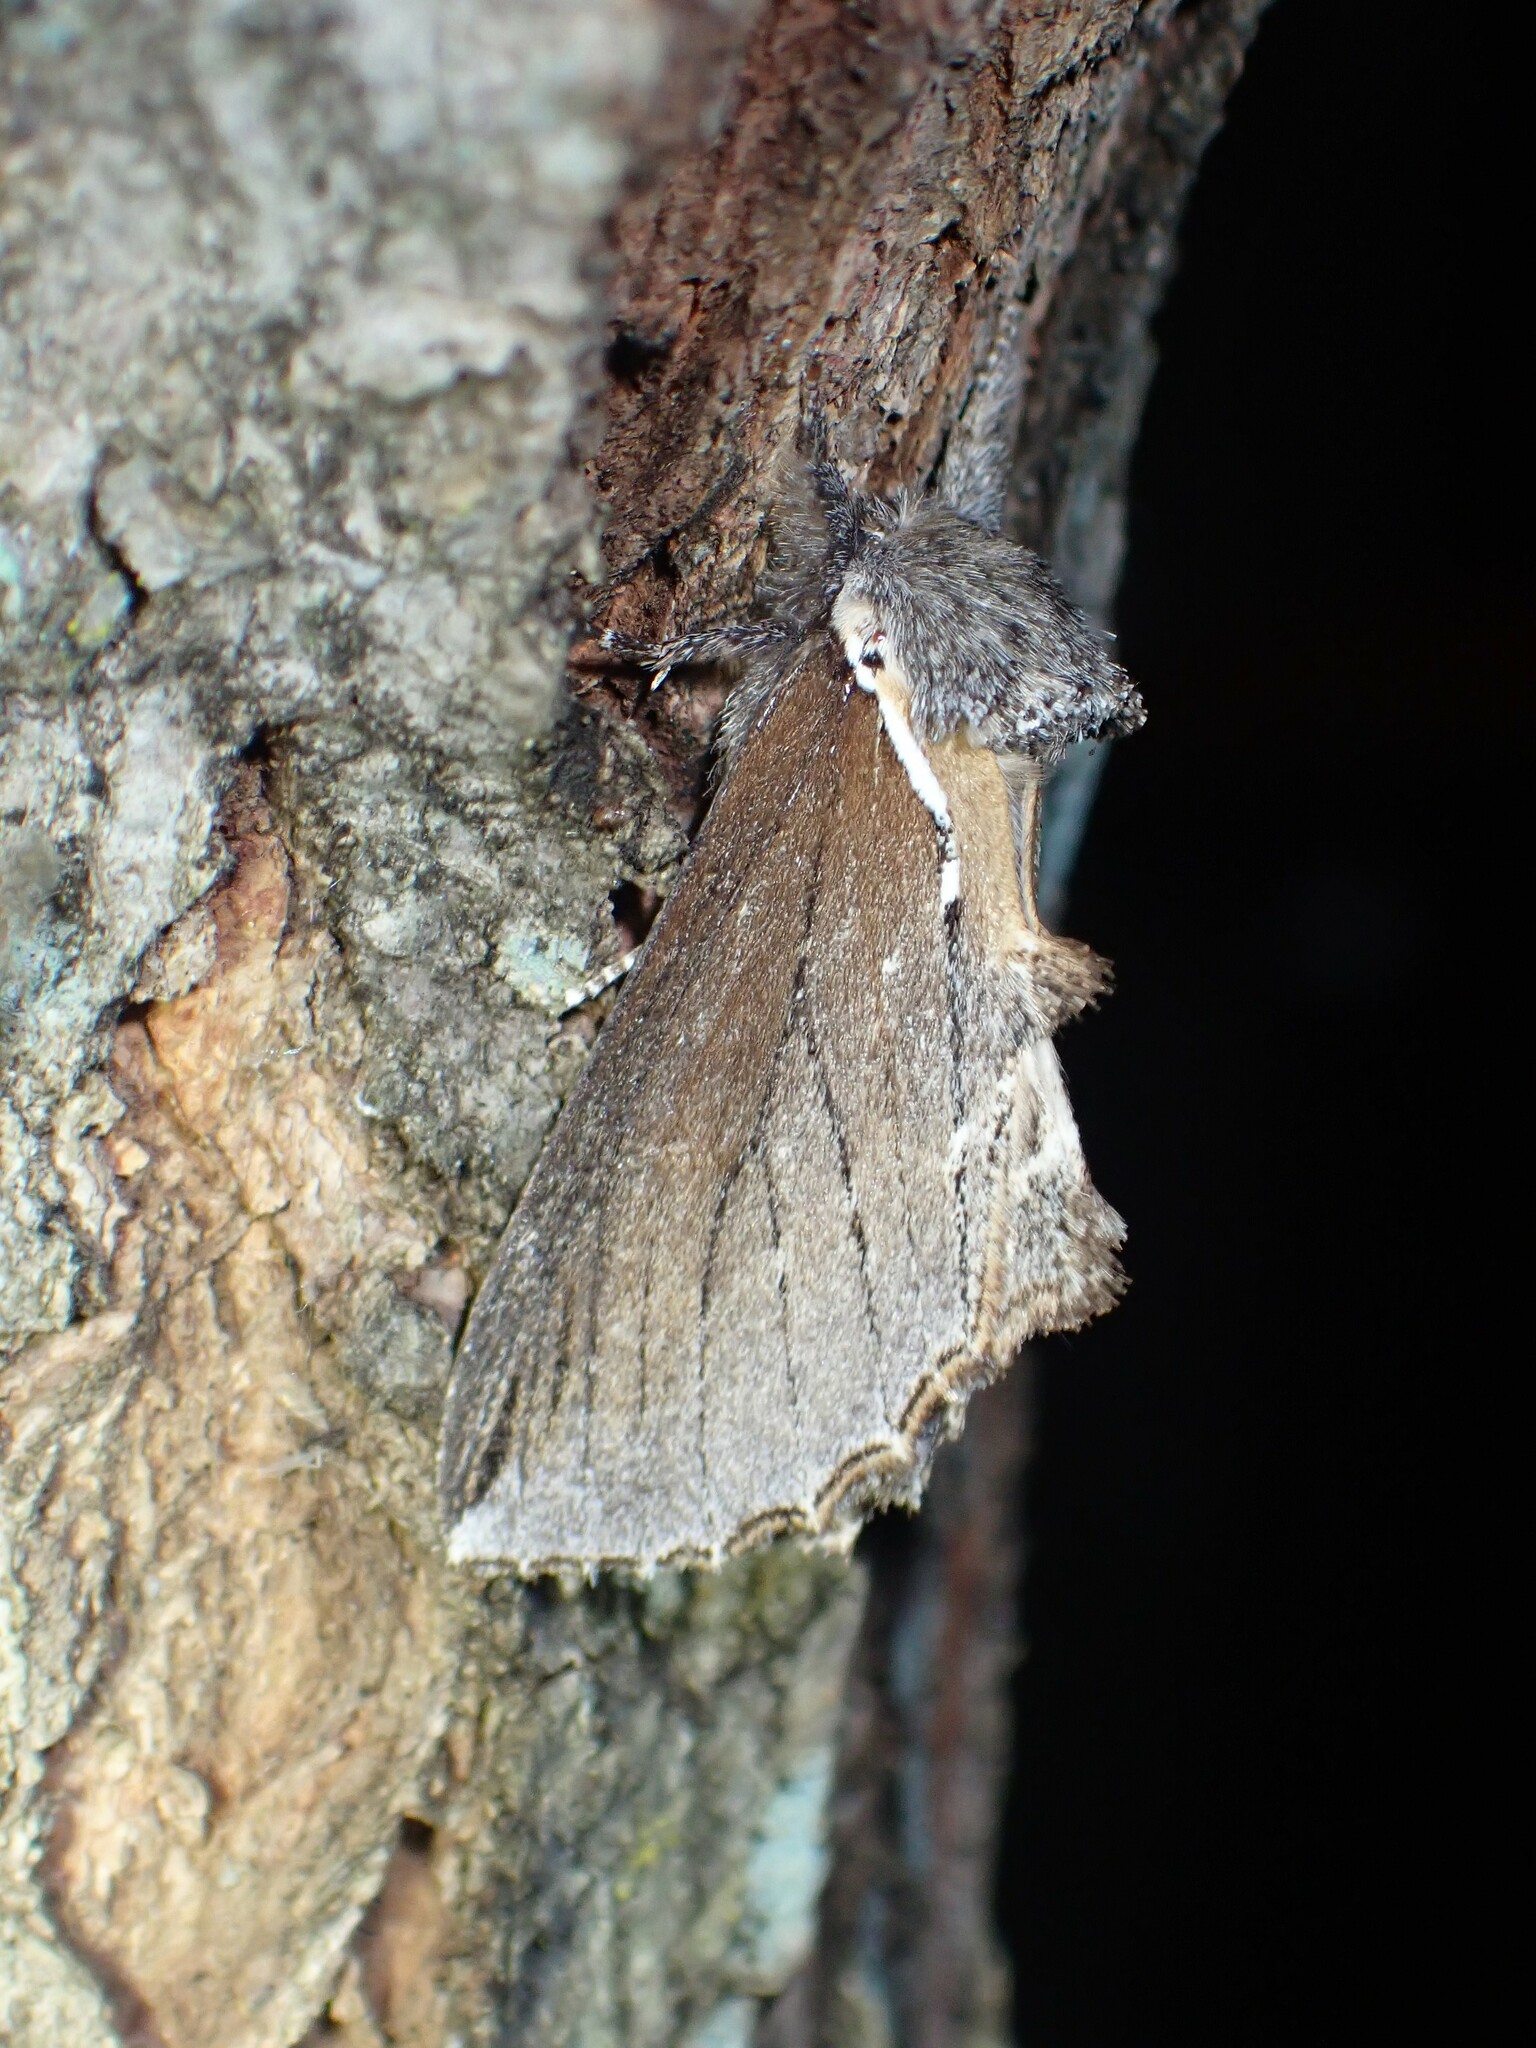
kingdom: Animalia
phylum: Arthropoda
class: Insecta
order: Lepidoptera
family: Notodontidae
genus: Pheosidea
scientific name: Pheosidea elegans
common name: Elegant prominent
